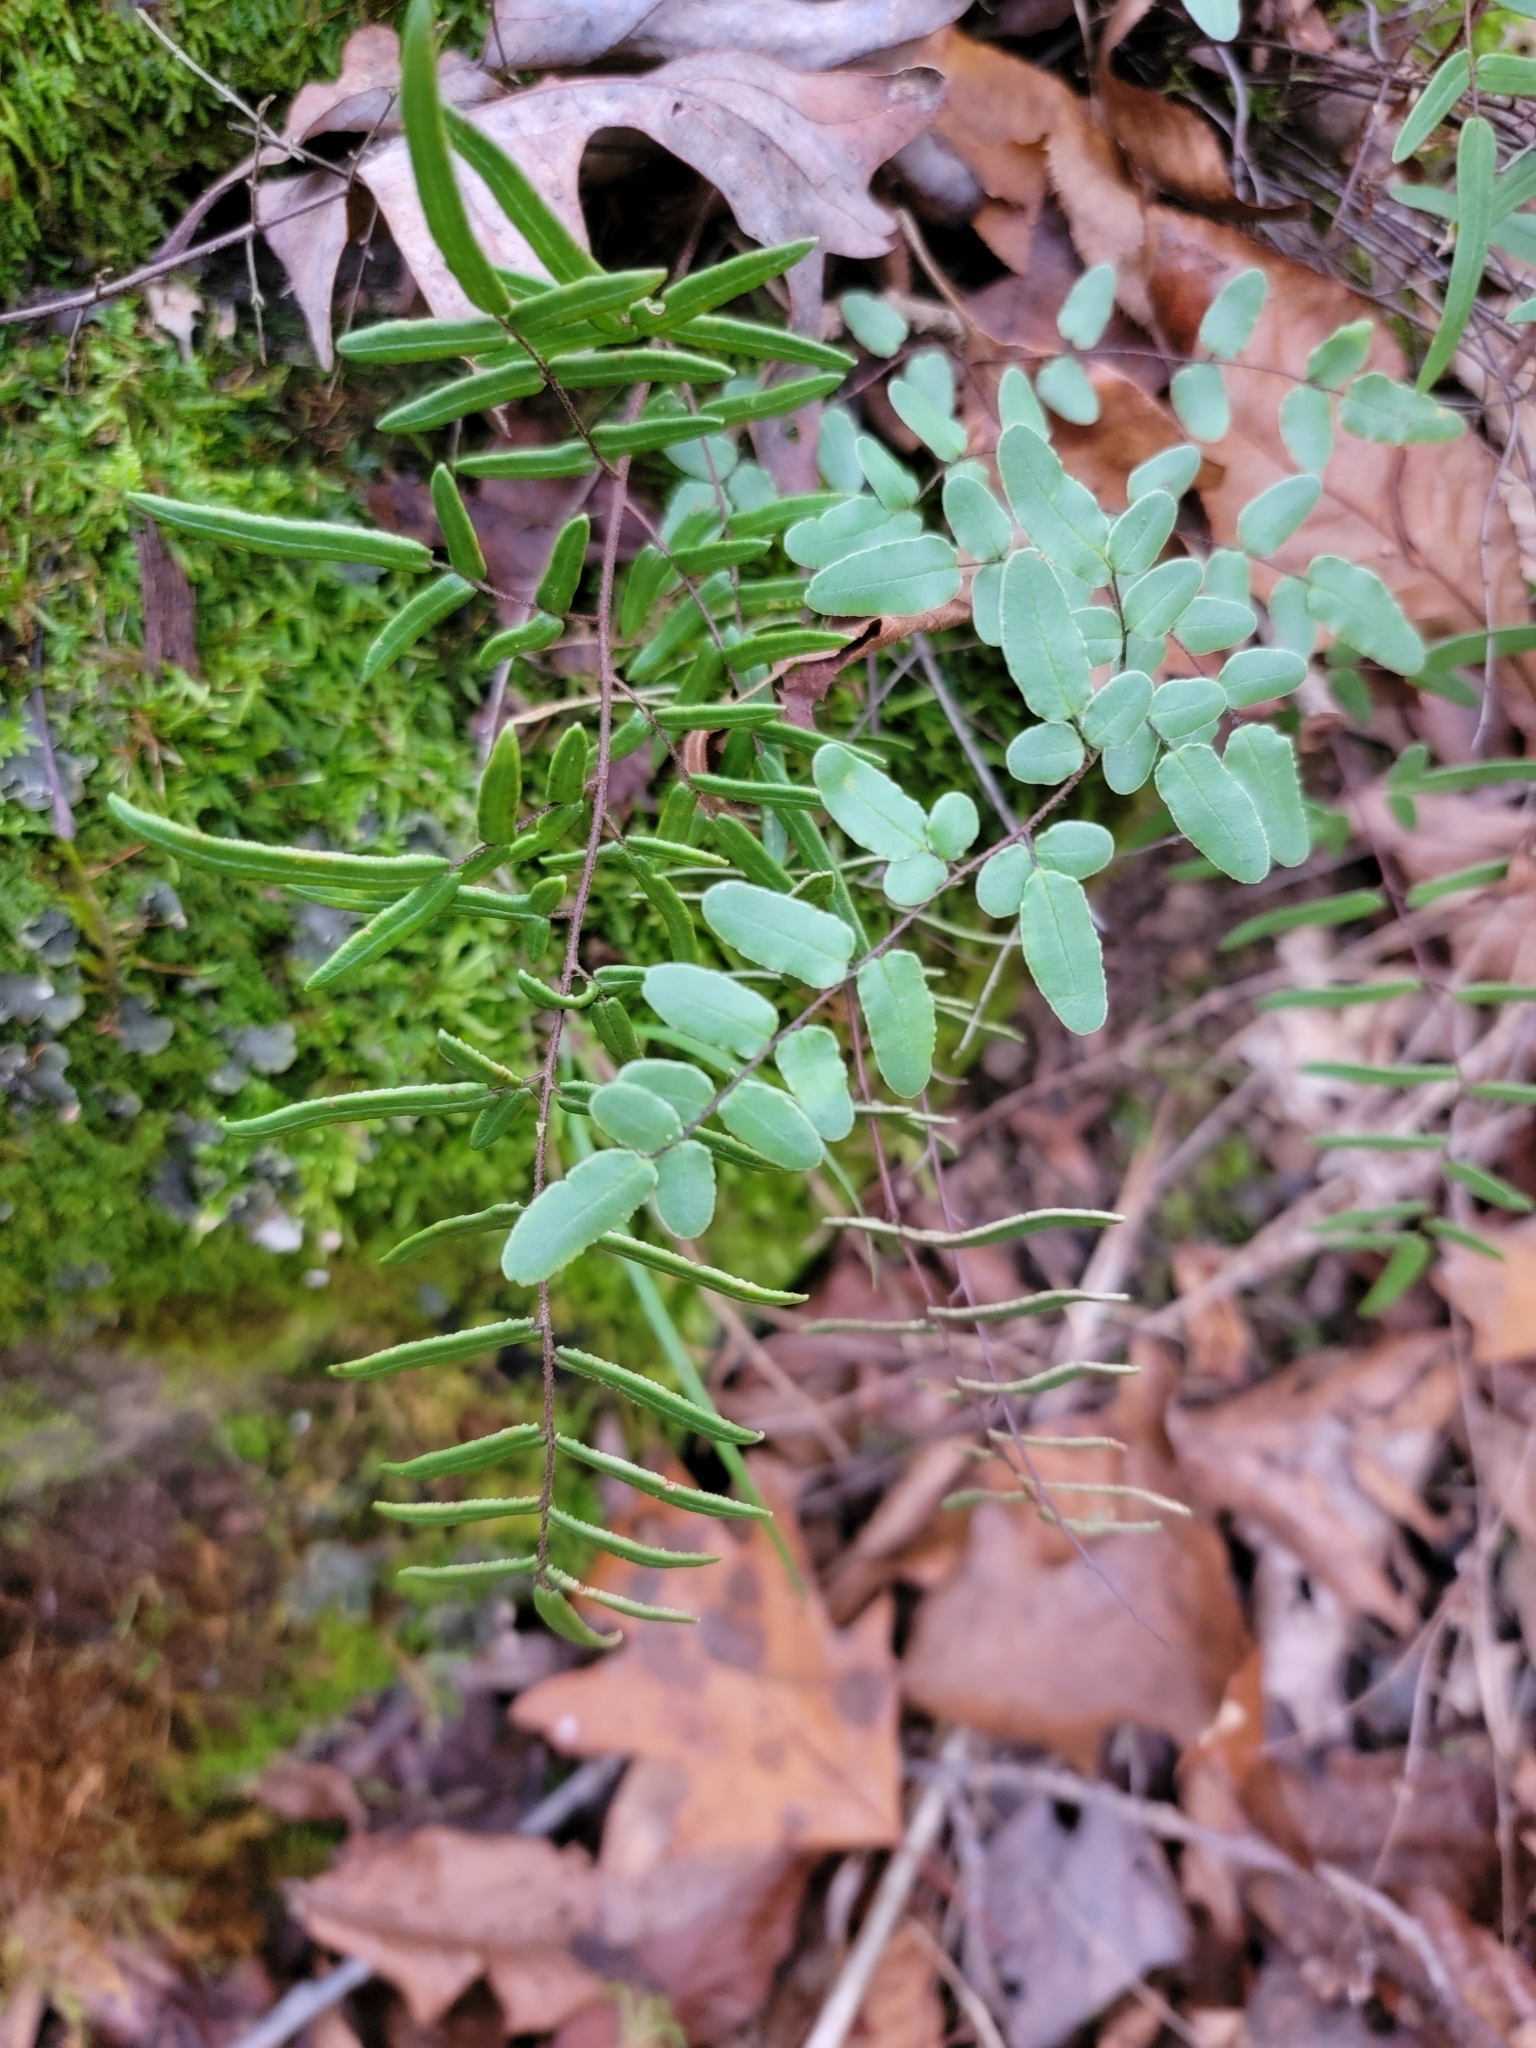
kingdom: Plantae
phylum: Tracheophyta
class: Polypodiopsida
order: Polypodiales
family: Pteridaceae
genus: Pellaea
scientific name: Pellaea atropurpurea
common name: Hairy cliffbrake
